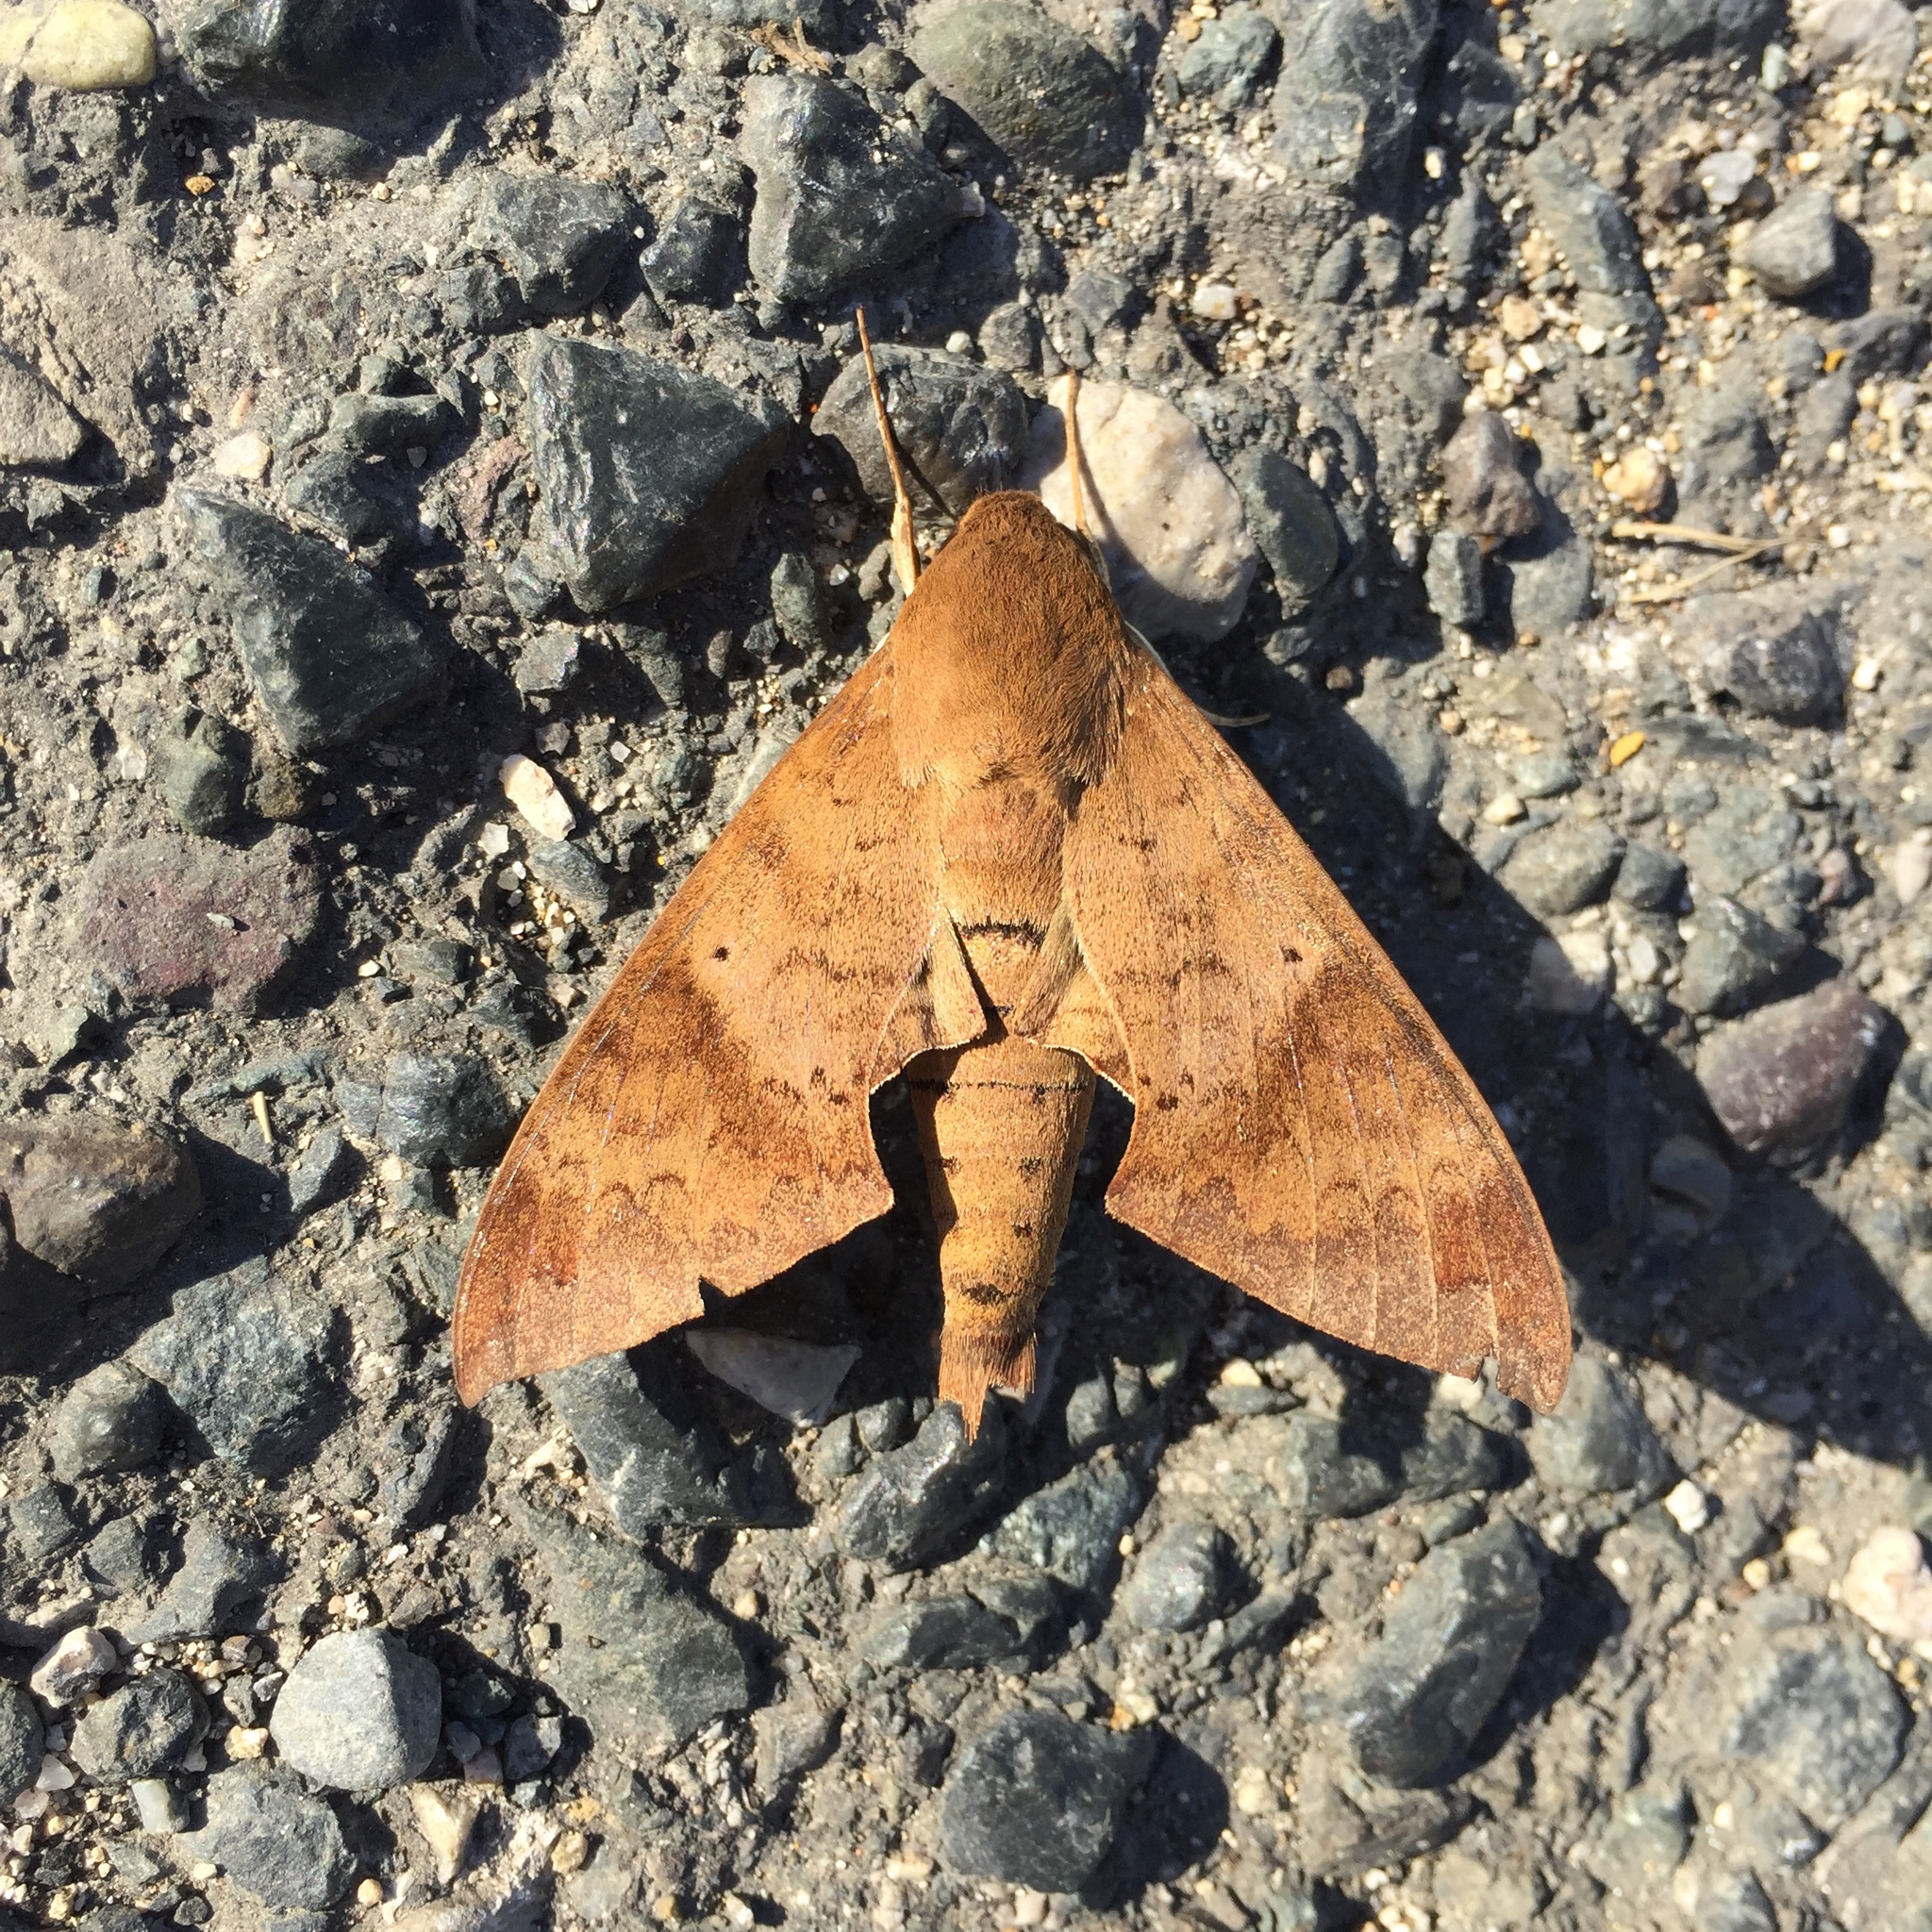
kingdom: Animalia
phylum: Arthropoda
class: Insecta
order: Lepidoptera
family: Sphingidae
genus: Pachylioides
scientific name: Pachylioides resumens
